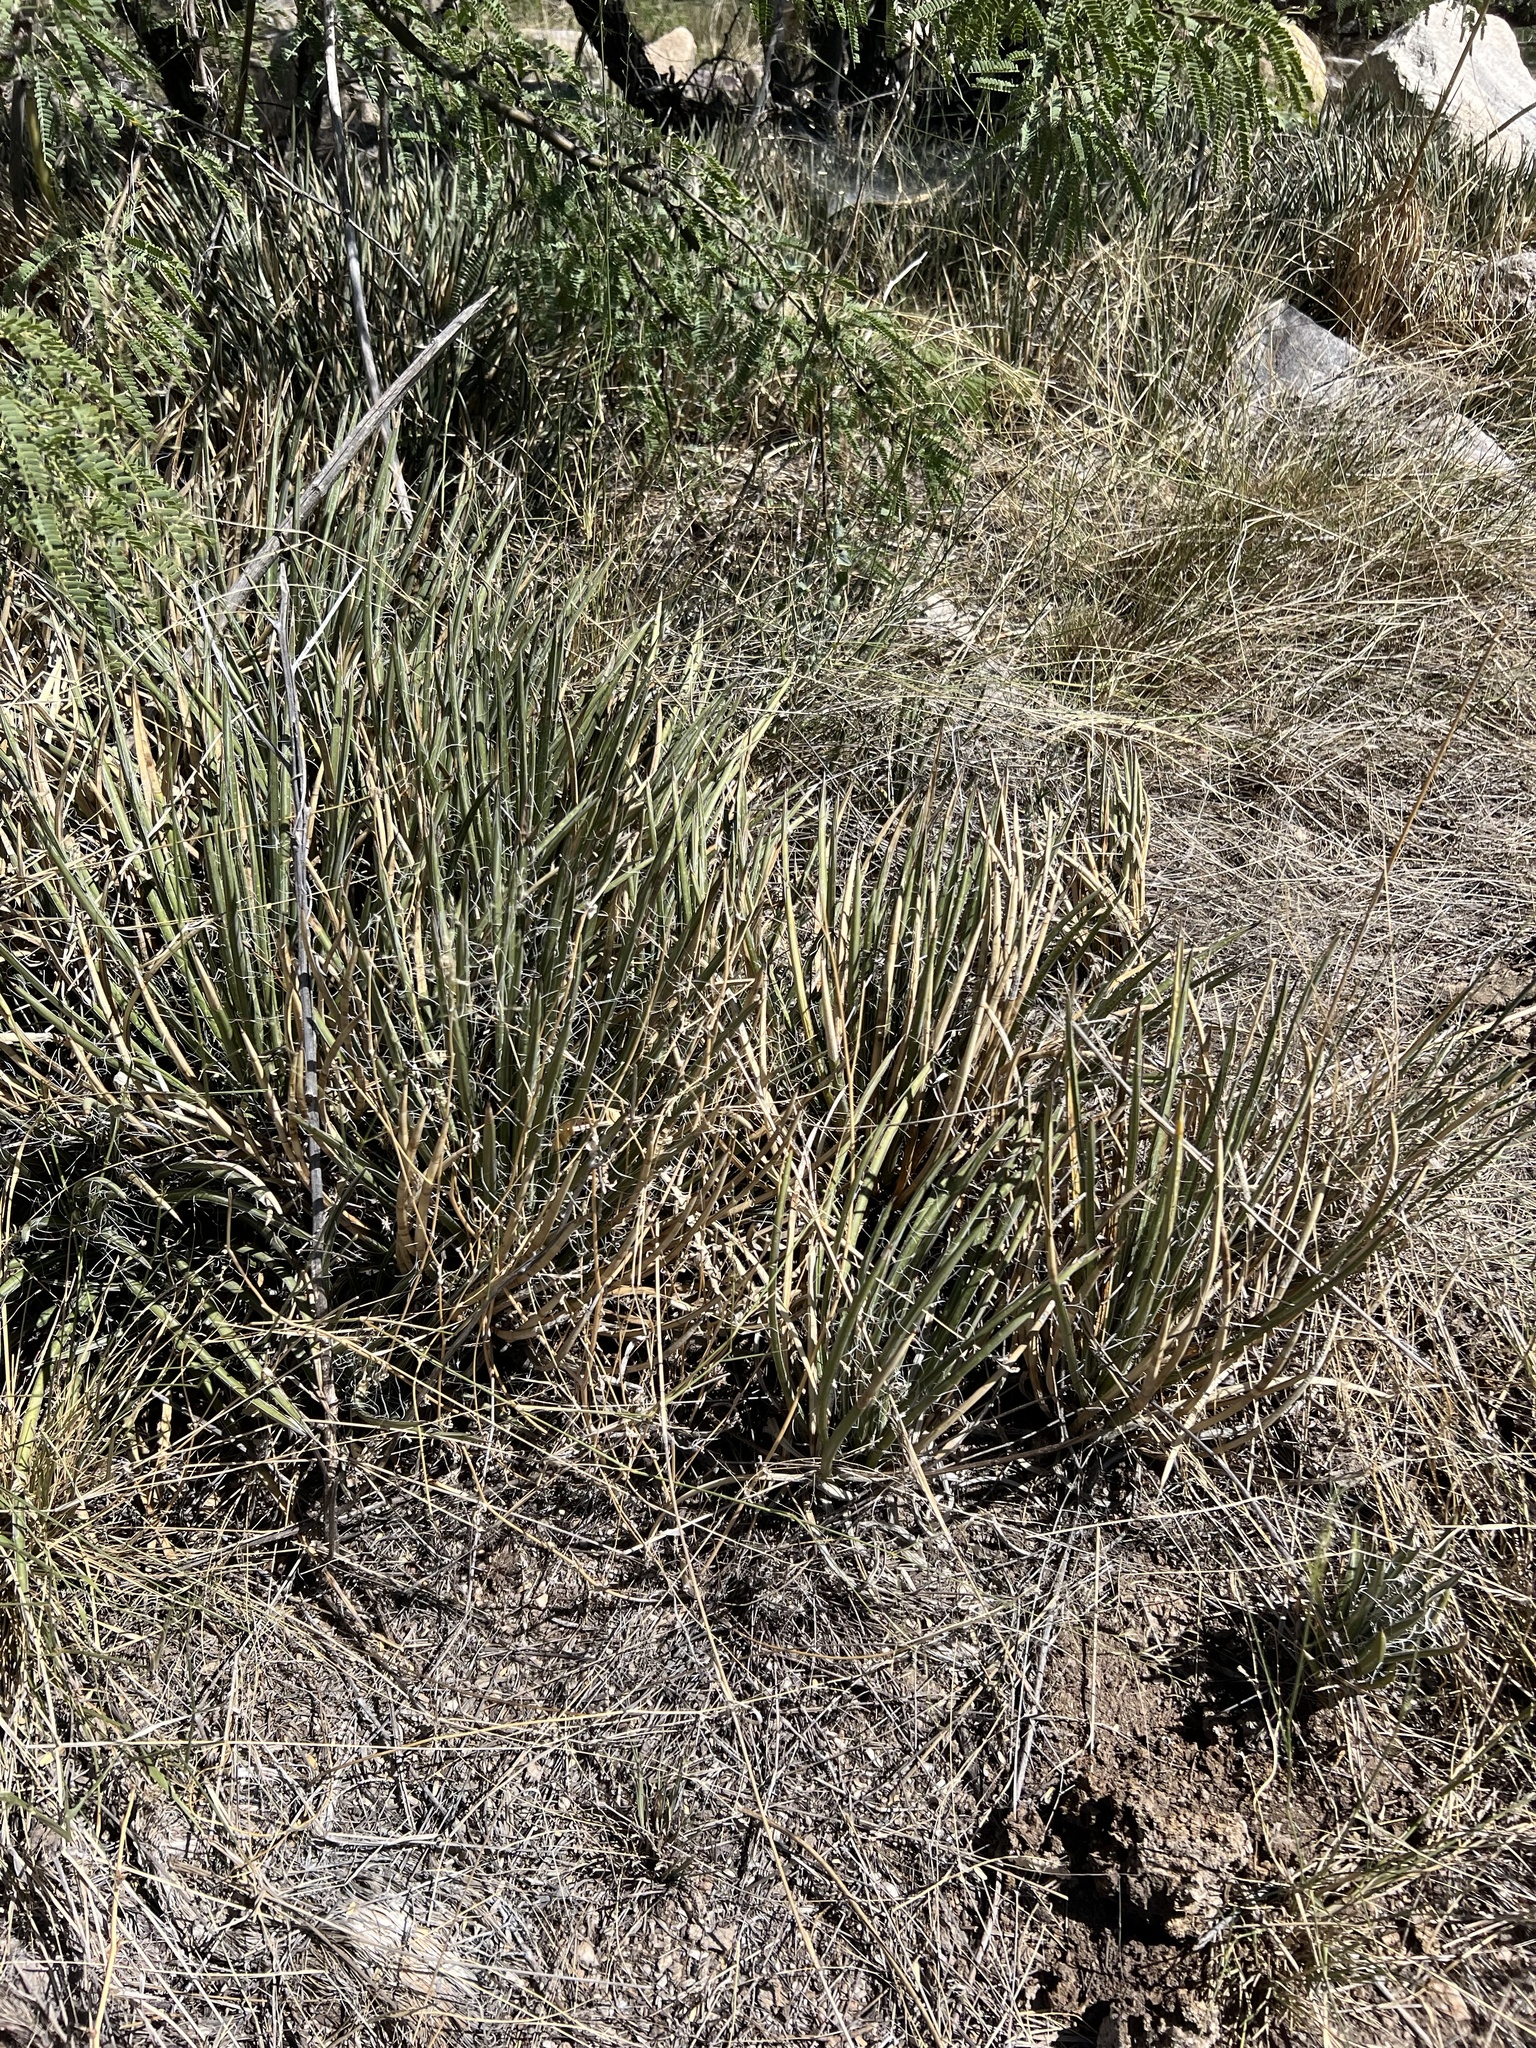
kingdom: Plantae
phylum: Tracheophyta
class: Liliopsida
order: Asparagales
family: Asparagaceae
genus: Agave
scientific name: Agave schottii
